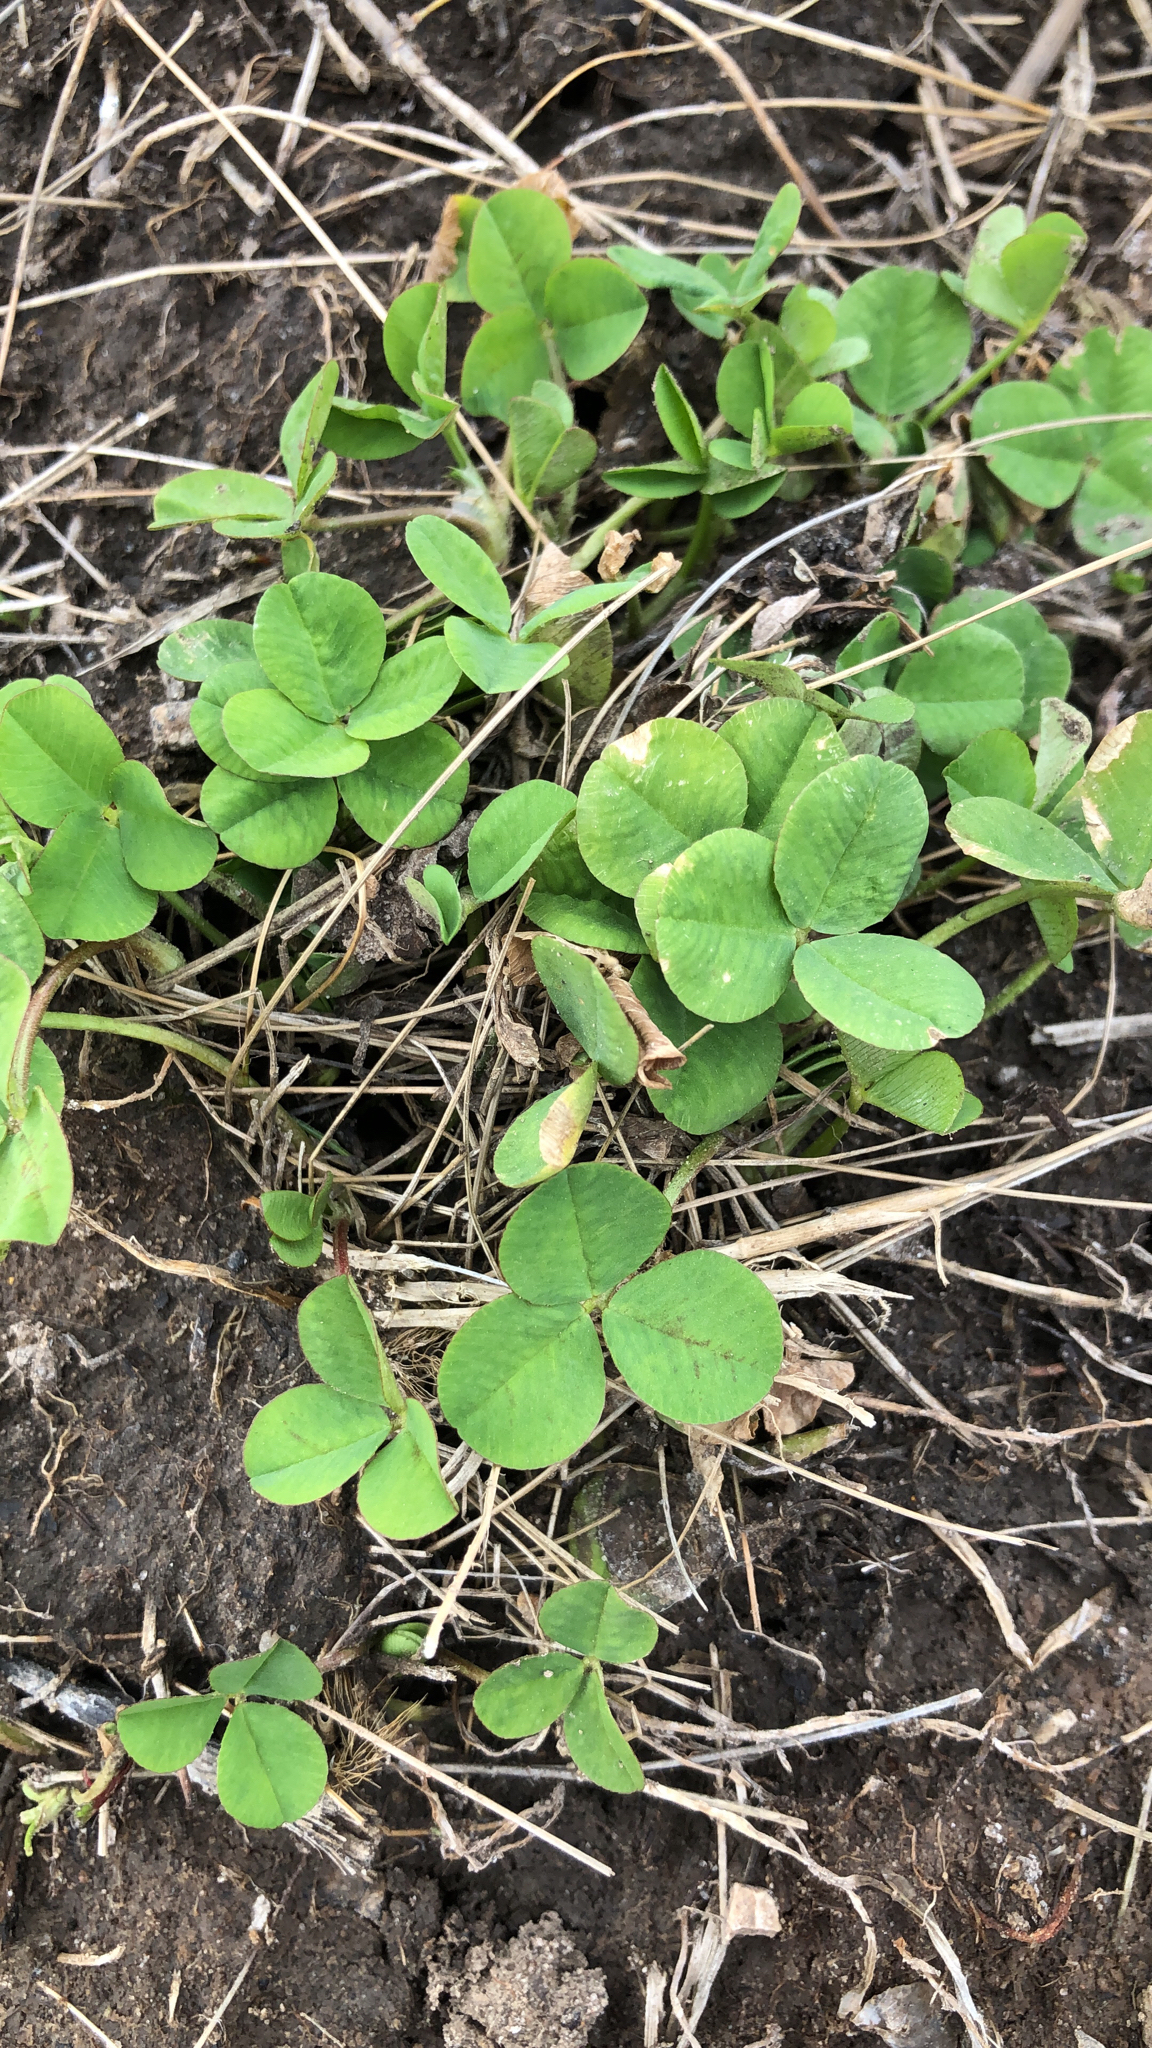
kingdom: Plantae
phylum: Tracheophyta
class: Magnoliopsida
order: Fabales
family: Fabaceae
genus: Trifolium
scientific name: Trifolium repens
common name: White clover
